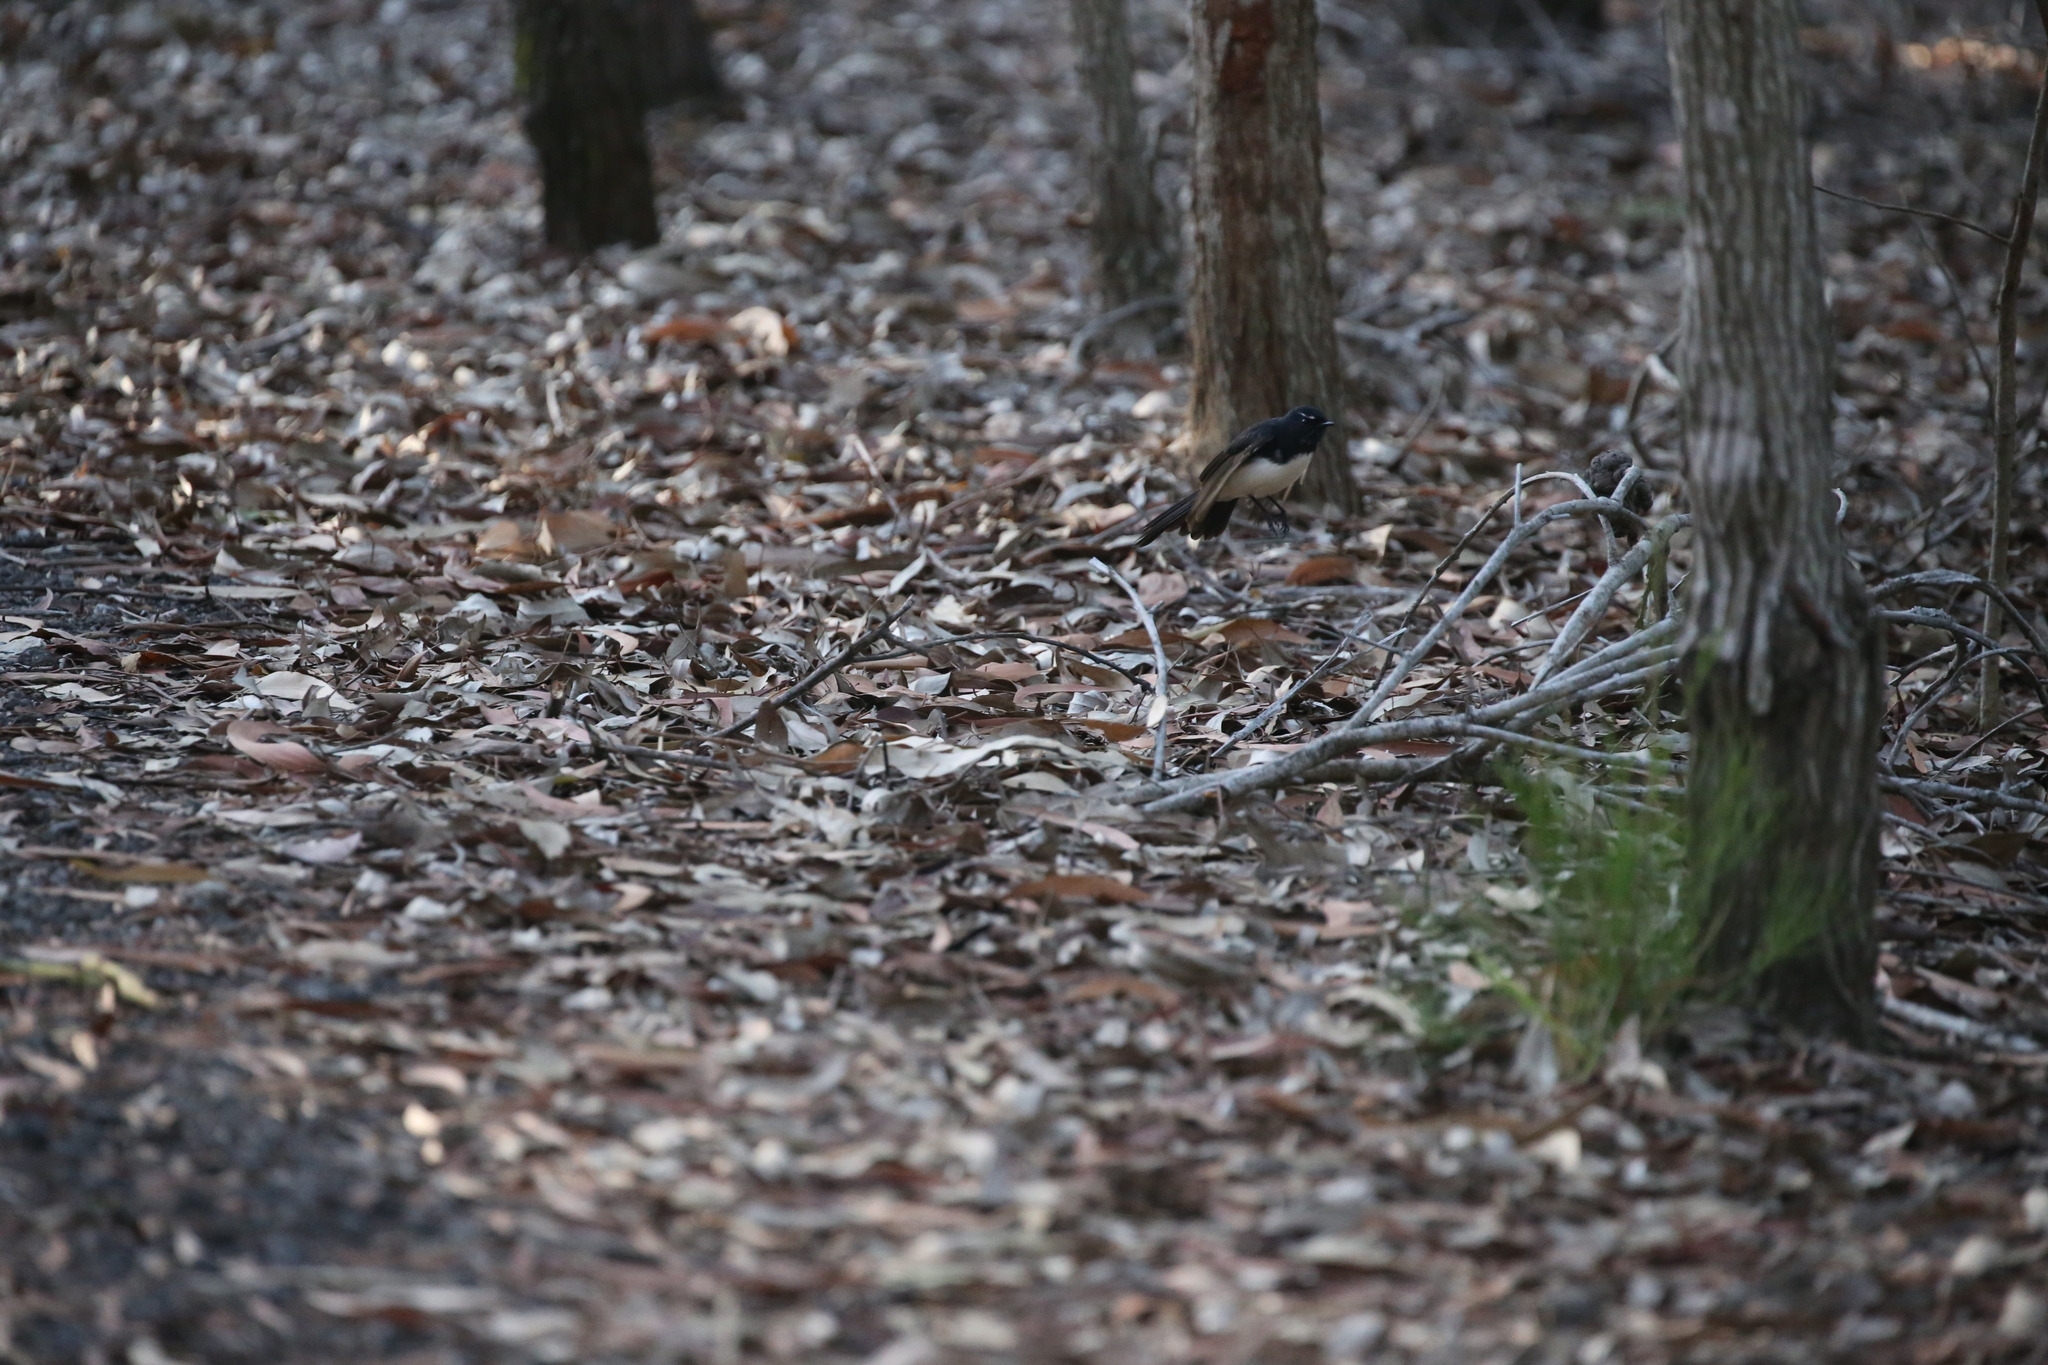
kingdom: Animalia
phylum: Chordata
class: Aves
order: Passeriformes
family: Rhipiduridae
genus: Rhipidura
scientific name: Rhipidura leucophrys
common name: Willie wagtail
